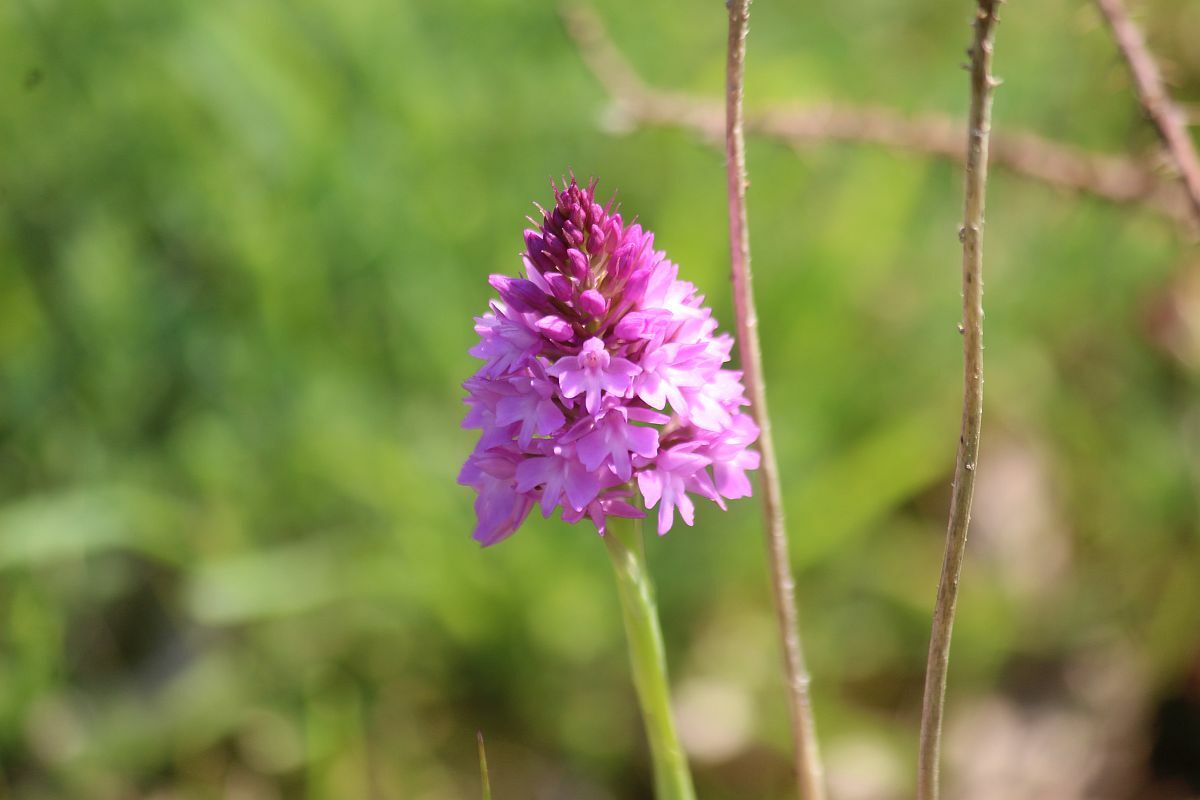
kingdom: Plantae
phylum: Tracheophyta
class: Liliopsida
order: Asparagales
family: Orchidaceae
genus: Anacamptis
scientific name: Anacamptis pyramidalis
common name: Pyramidal orchid
